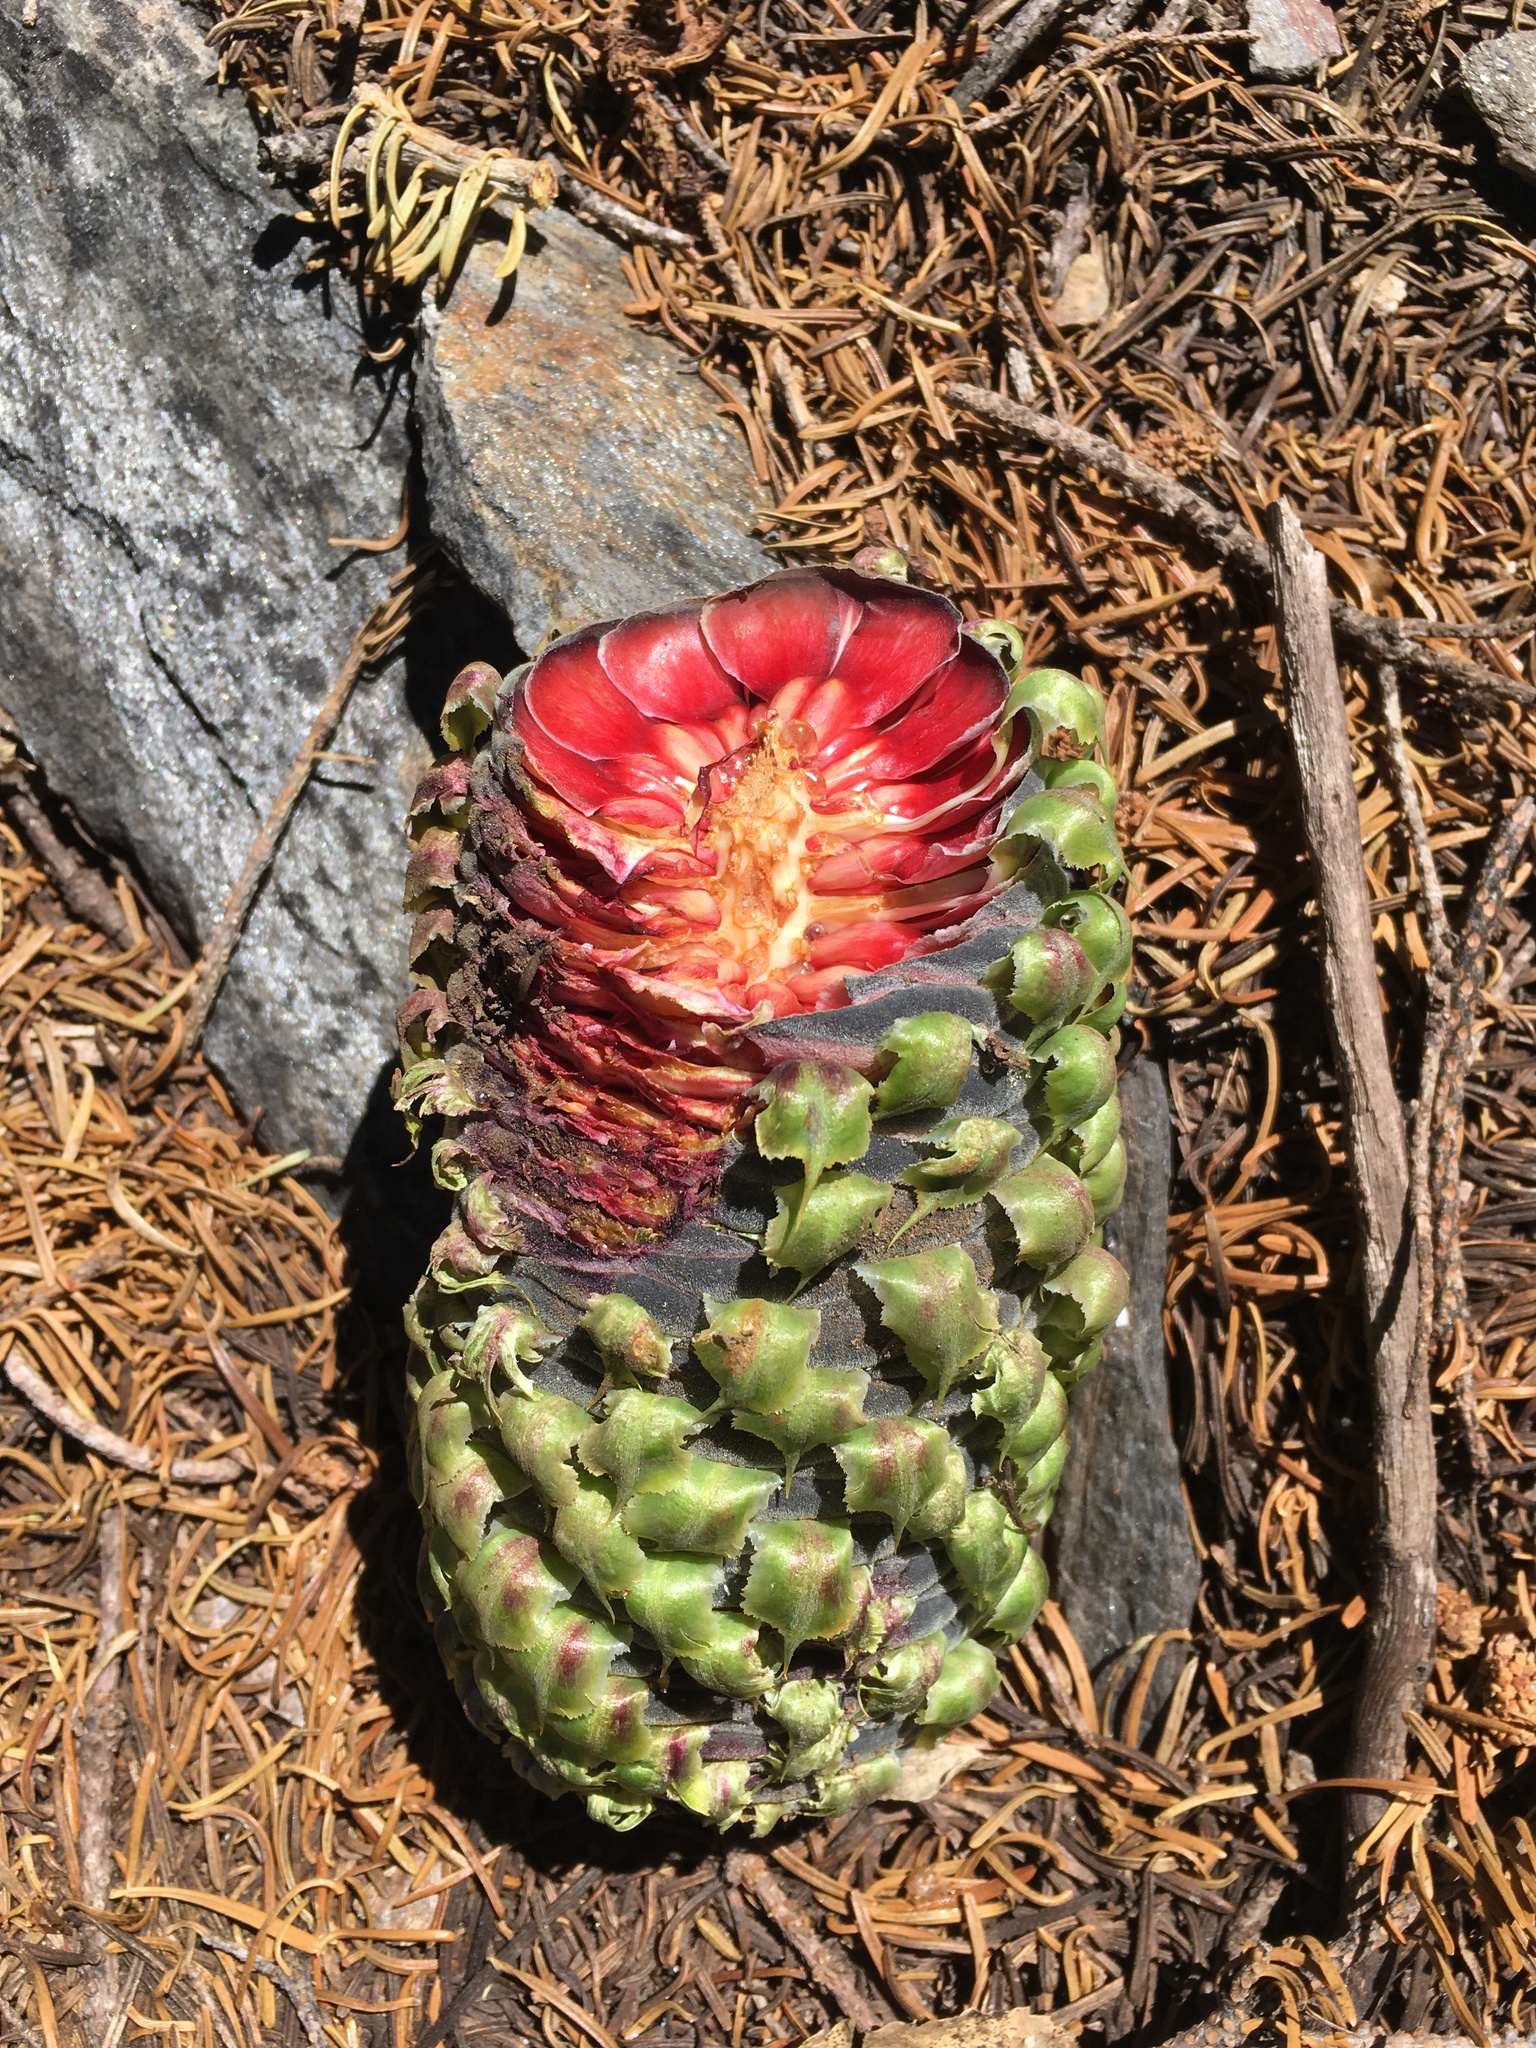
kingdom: Plantae
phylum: Tracheophyta
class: Pinopsida
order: Pinales
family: Pinaceae
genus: Abies
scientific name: Abies magnifica bis
